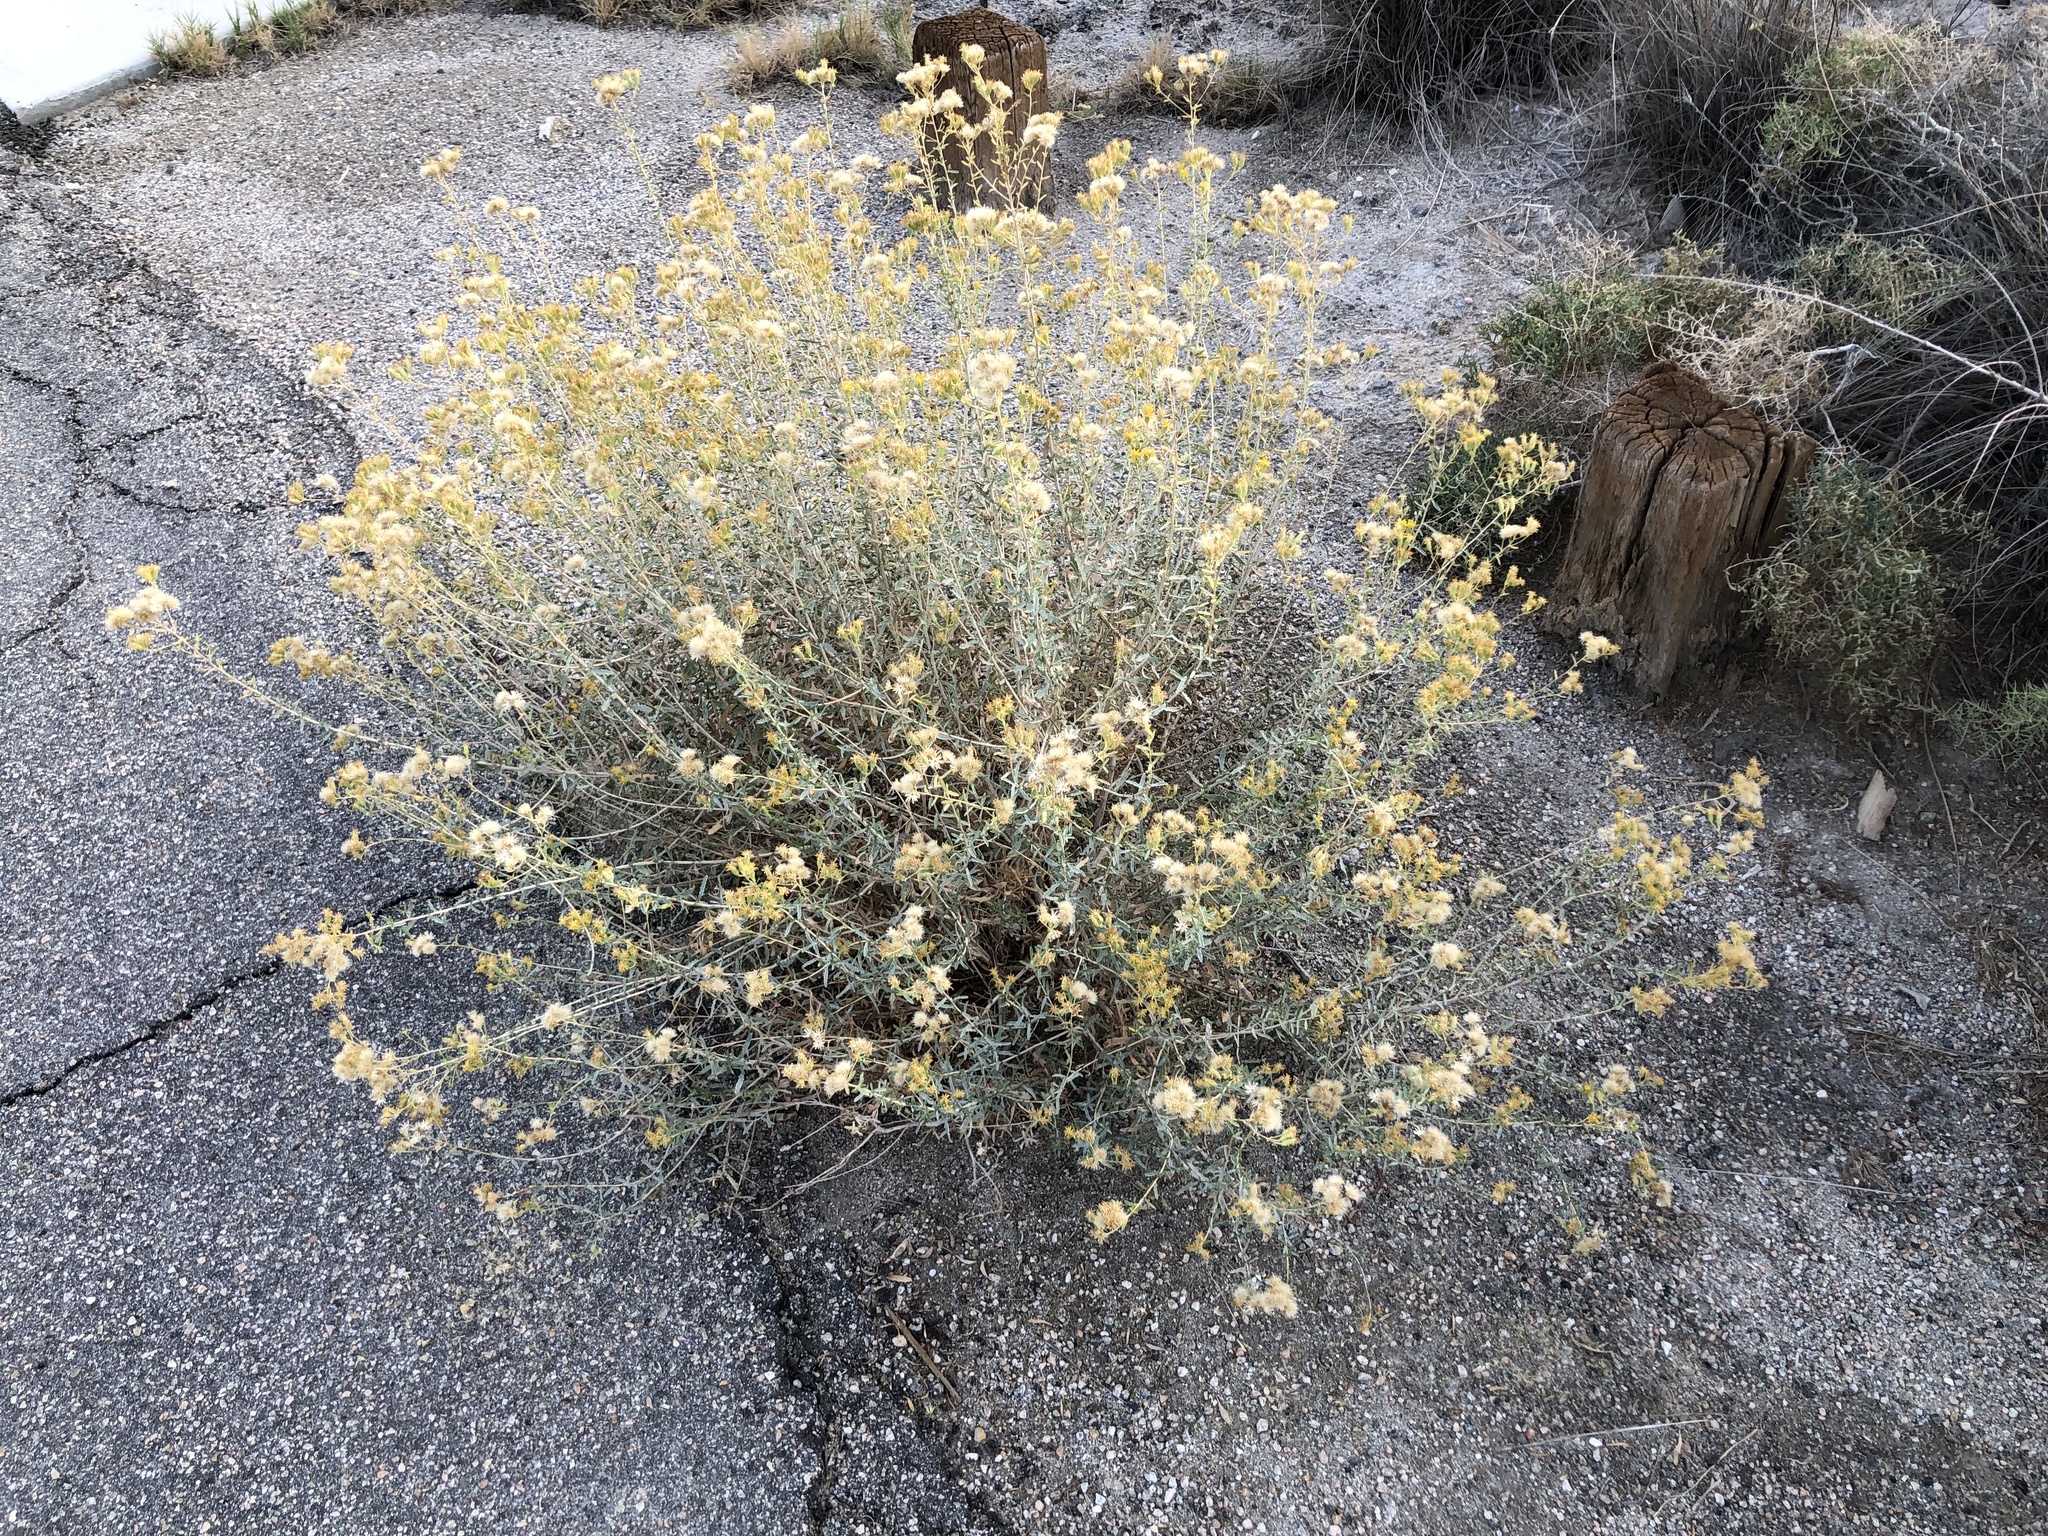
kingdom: Plantae
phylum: Tracheophyta
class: Magnoliopsida
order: Asterales
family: Asteraceae
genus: Isocoma
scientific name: Isocoma acradenia
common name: Alkali jimmyweed
